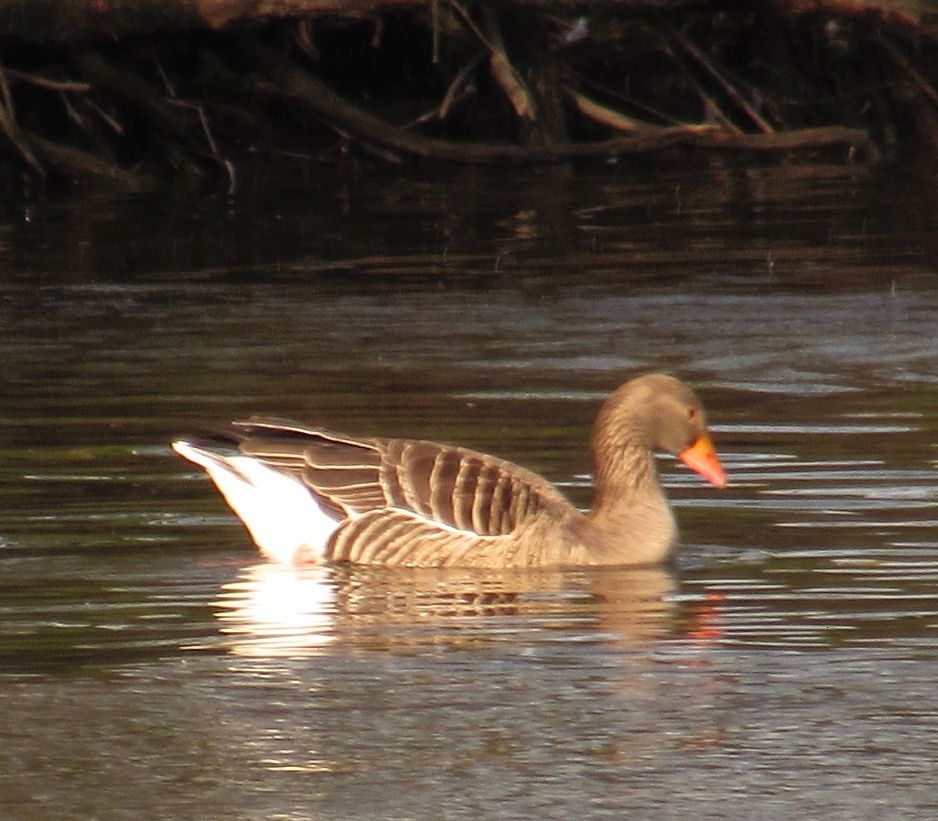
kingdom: Animalia
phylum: Chordata
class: Aves
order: Anseriformes
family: Anatidae
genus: Anser
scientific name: Anser anser
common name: Greylag goose
